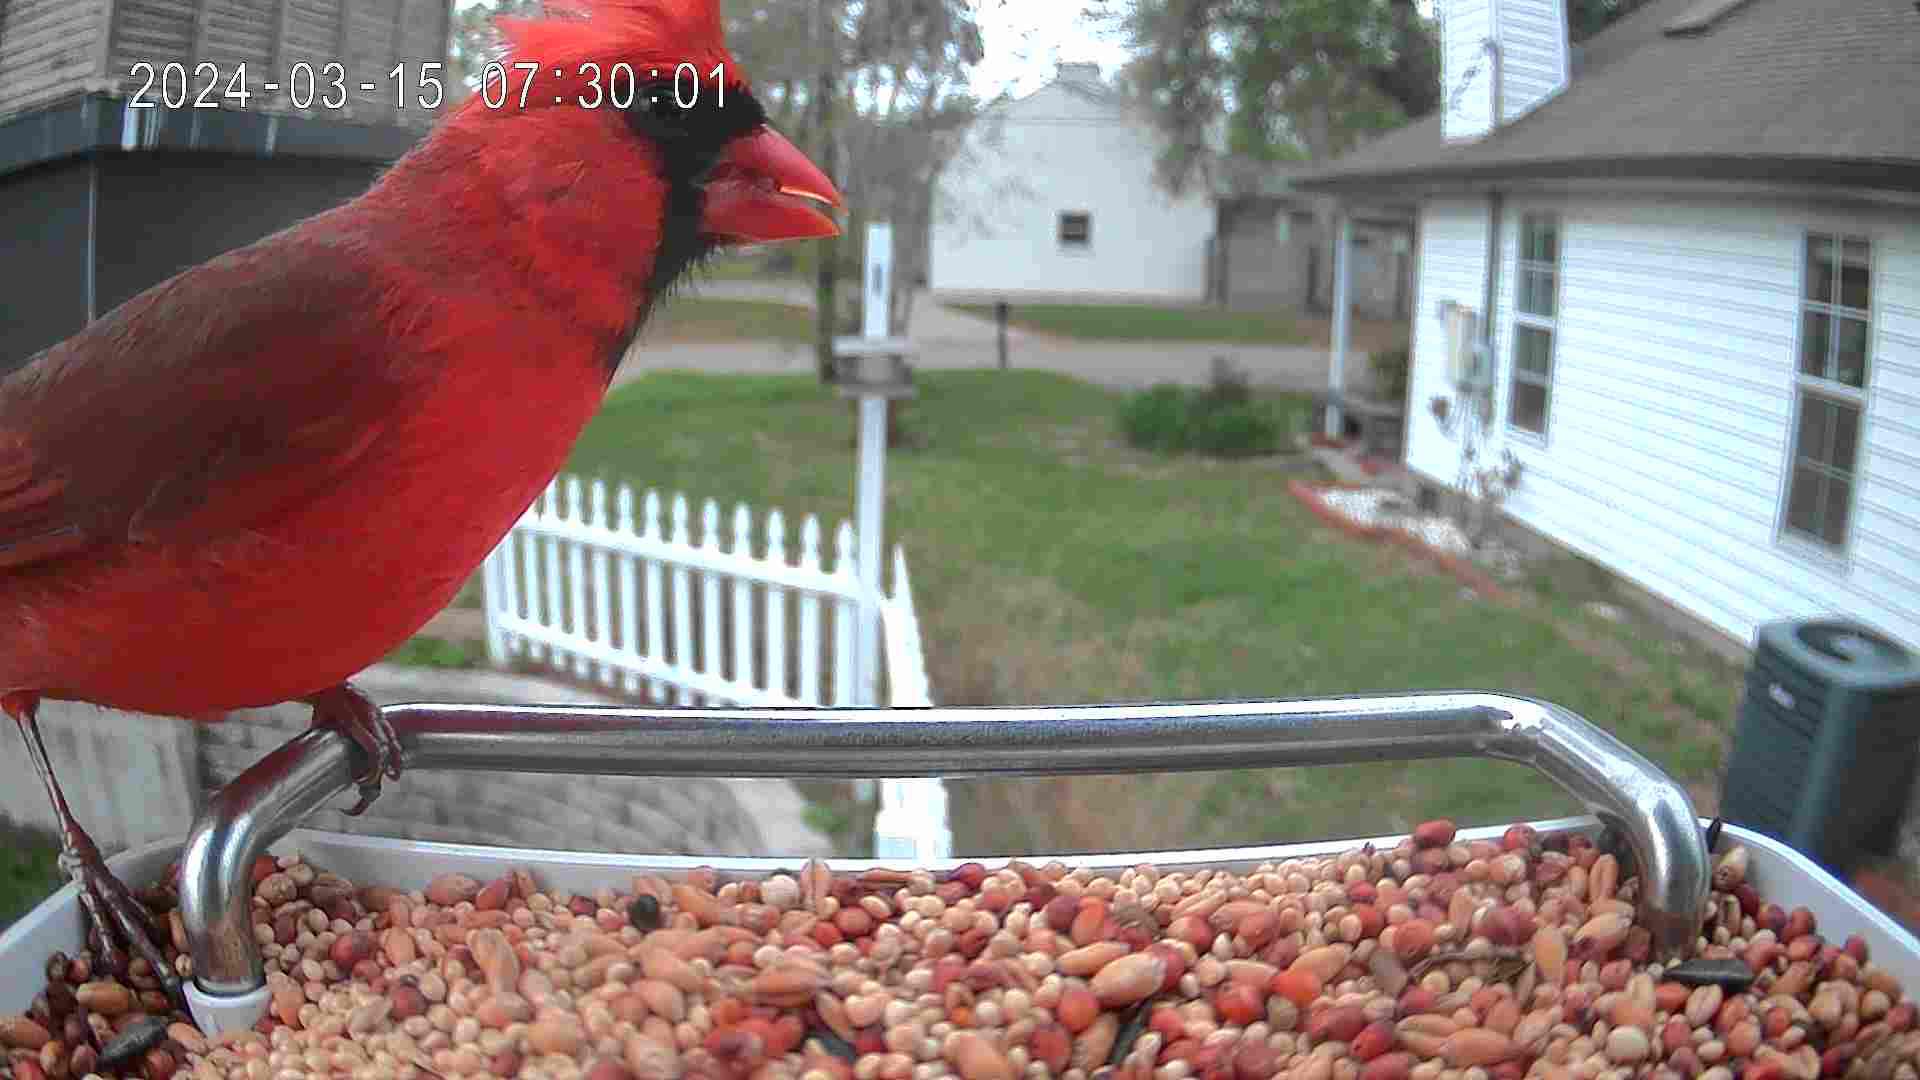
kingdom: Animalia
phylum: Chordata
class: Aves
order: Passeriformes
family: Cardinalidae
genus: Cardinalis
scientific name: Cardinalis cardinalis
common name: Northern cardinal
